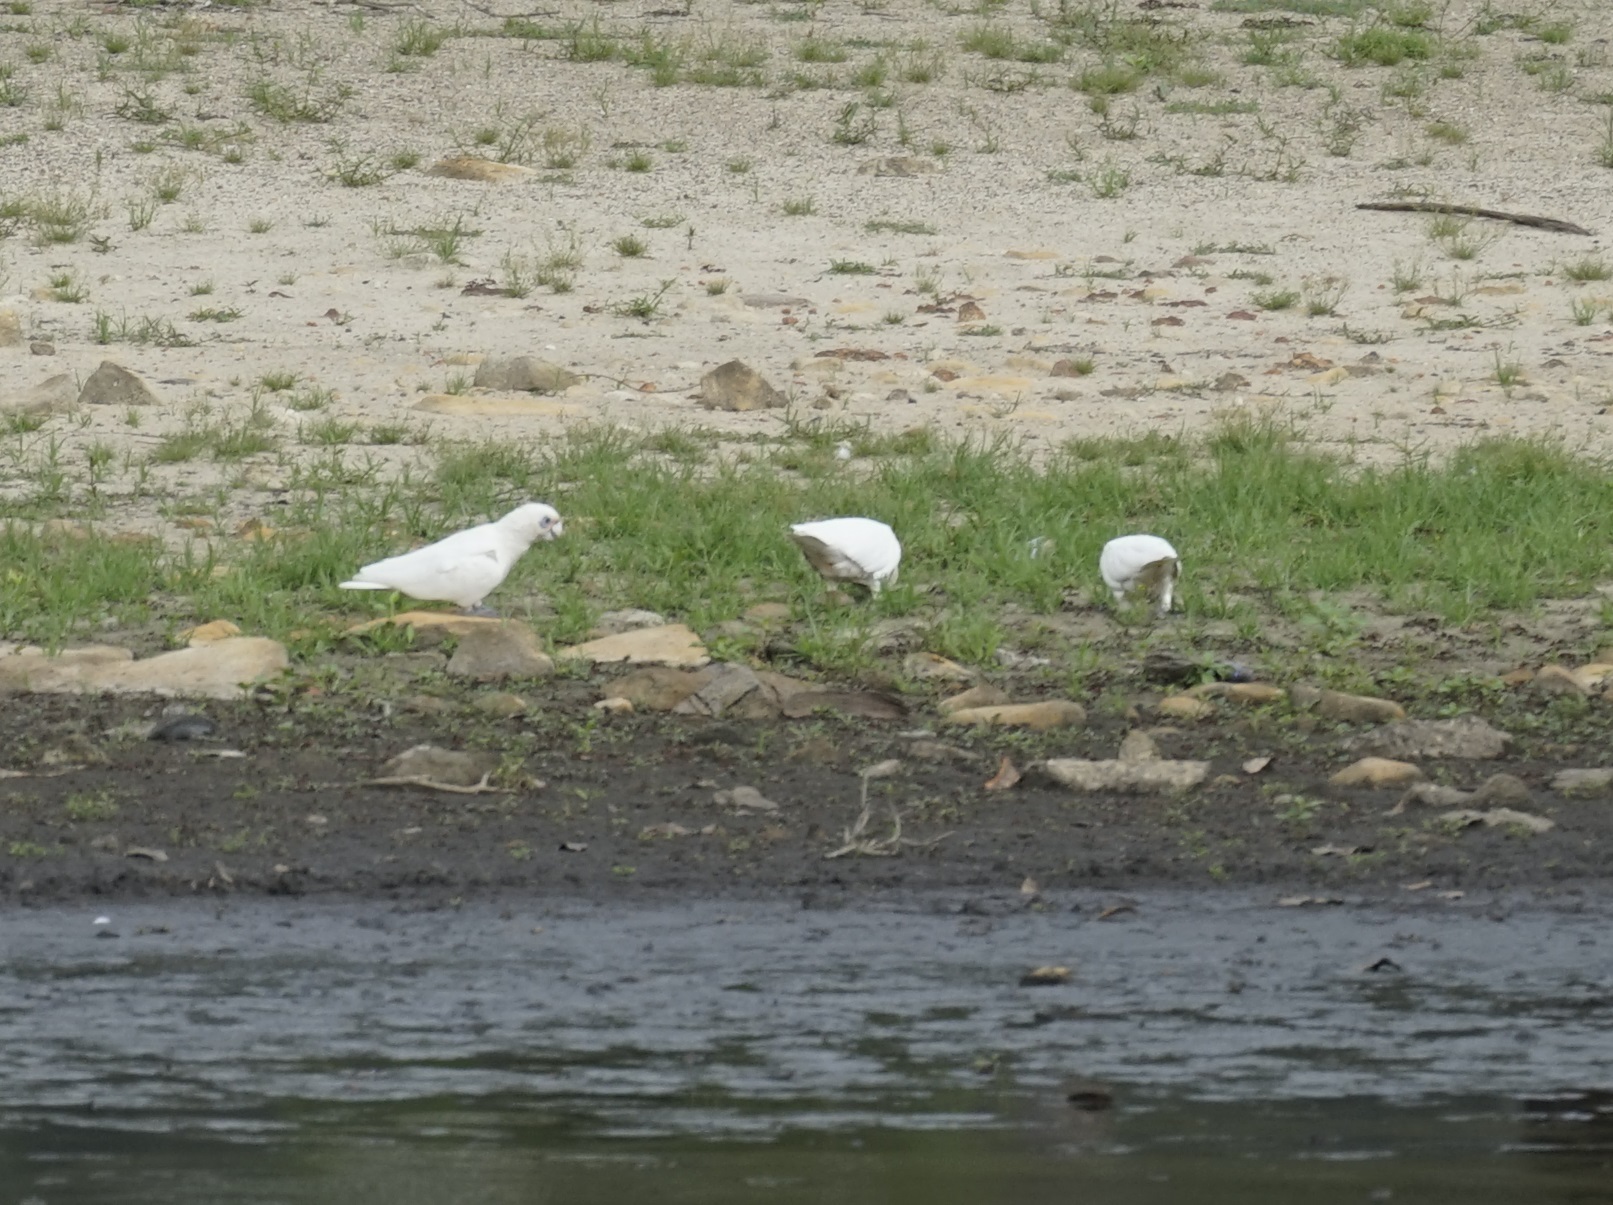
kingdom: Animalia
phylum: Chordata
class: Aves
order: Psittaciformes
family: Psittacidae
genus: Cacatua
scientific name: Cacatua sanguinea
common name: Little corella
